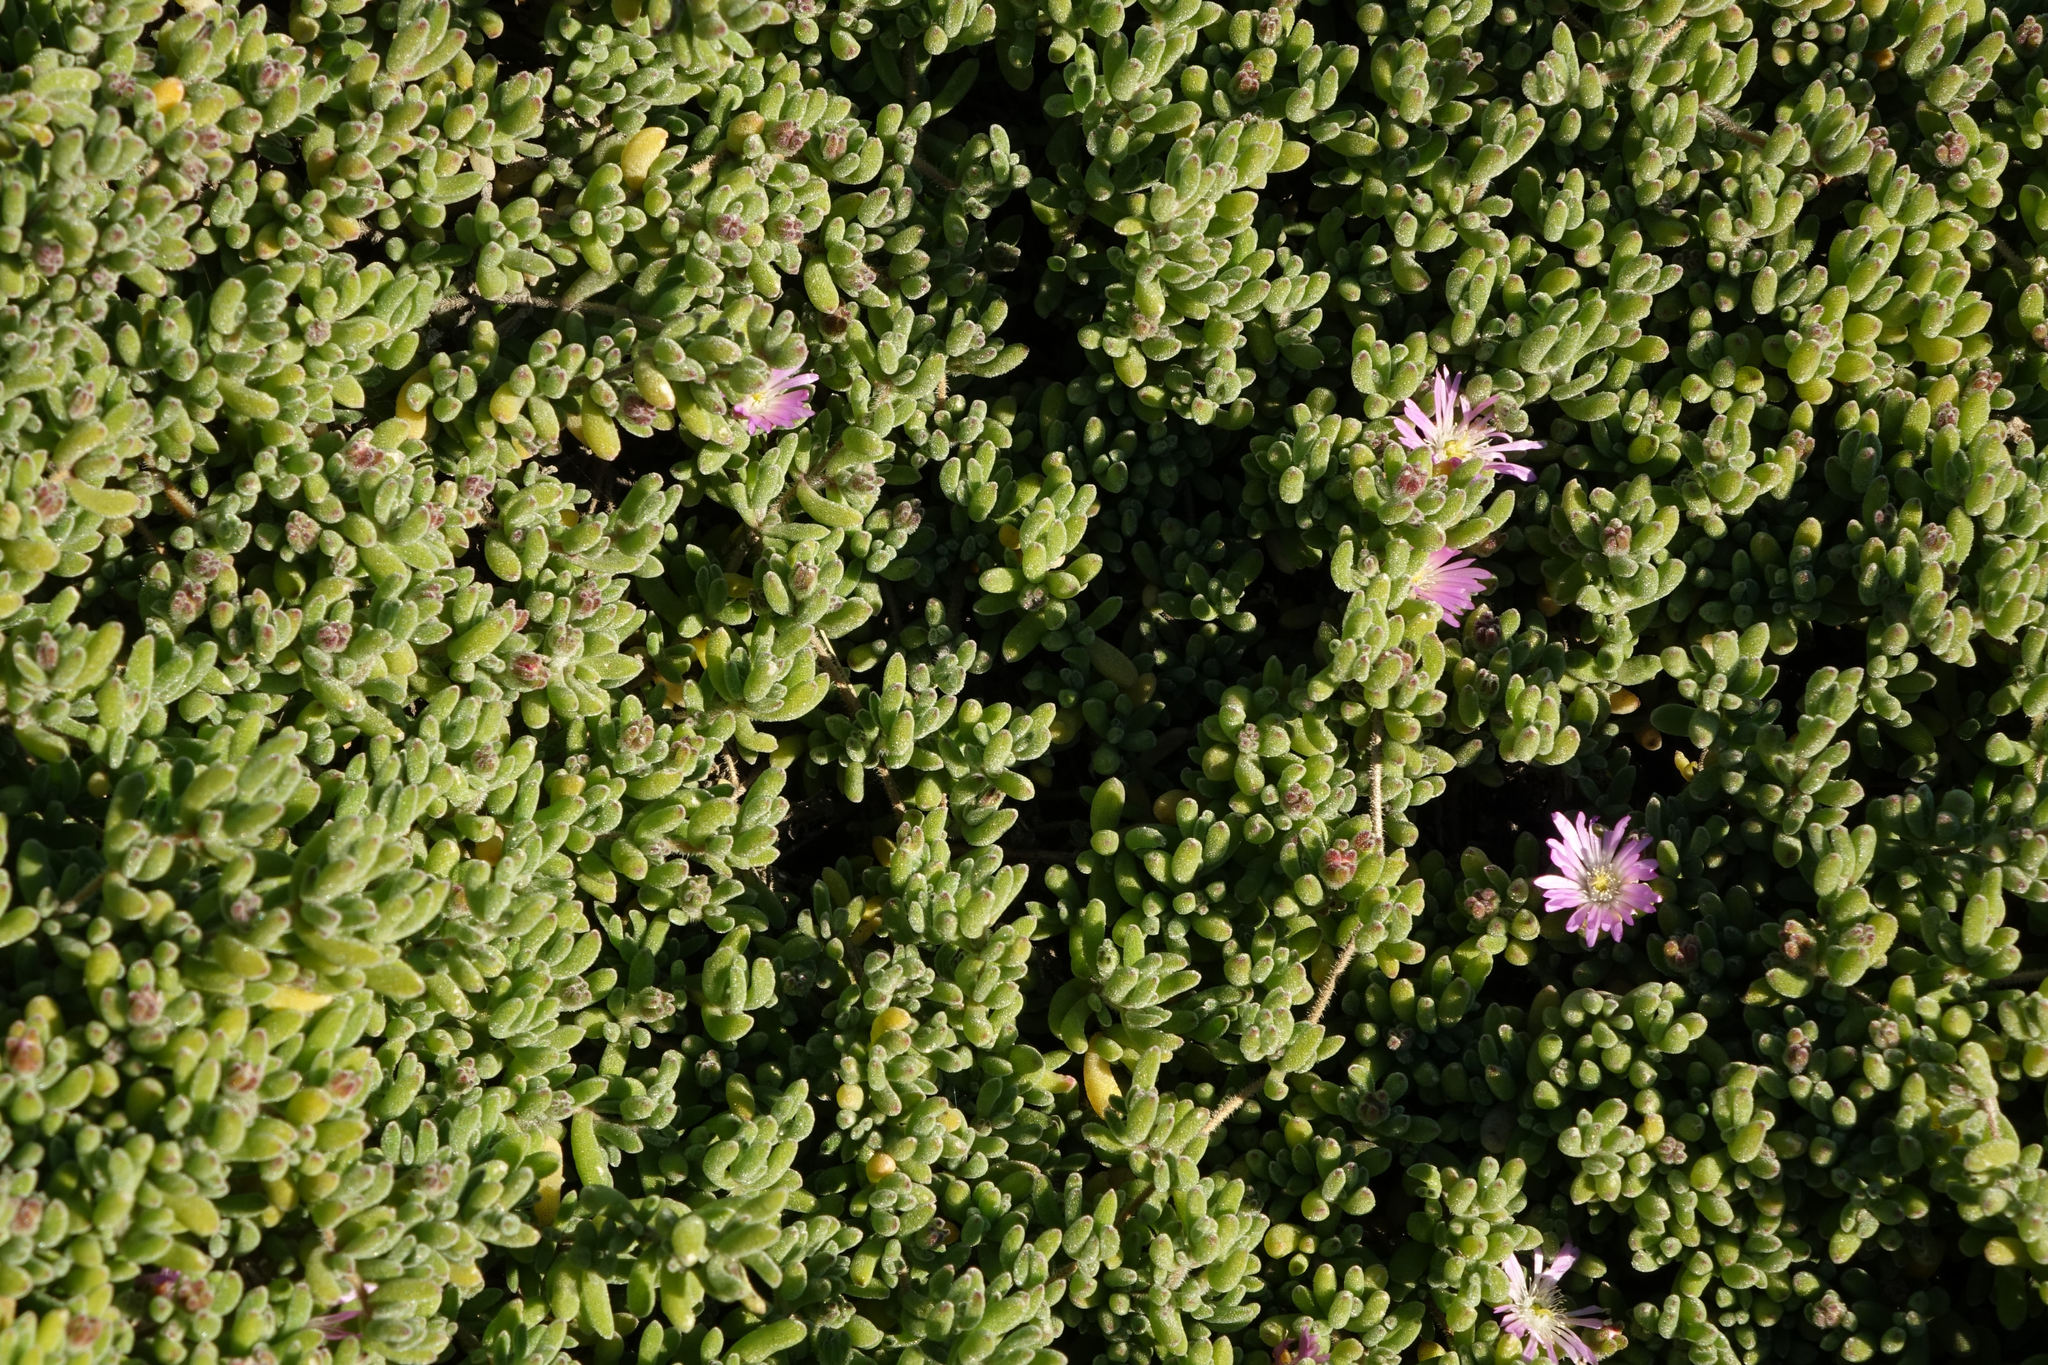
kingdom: Plantae
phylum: Tracheophyta
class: Magnoliopsida
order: Caryophyllales
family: Aizoaceae
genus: Drosanthemum
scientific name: Drosanthemum floribundum
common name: Pale dewplant
